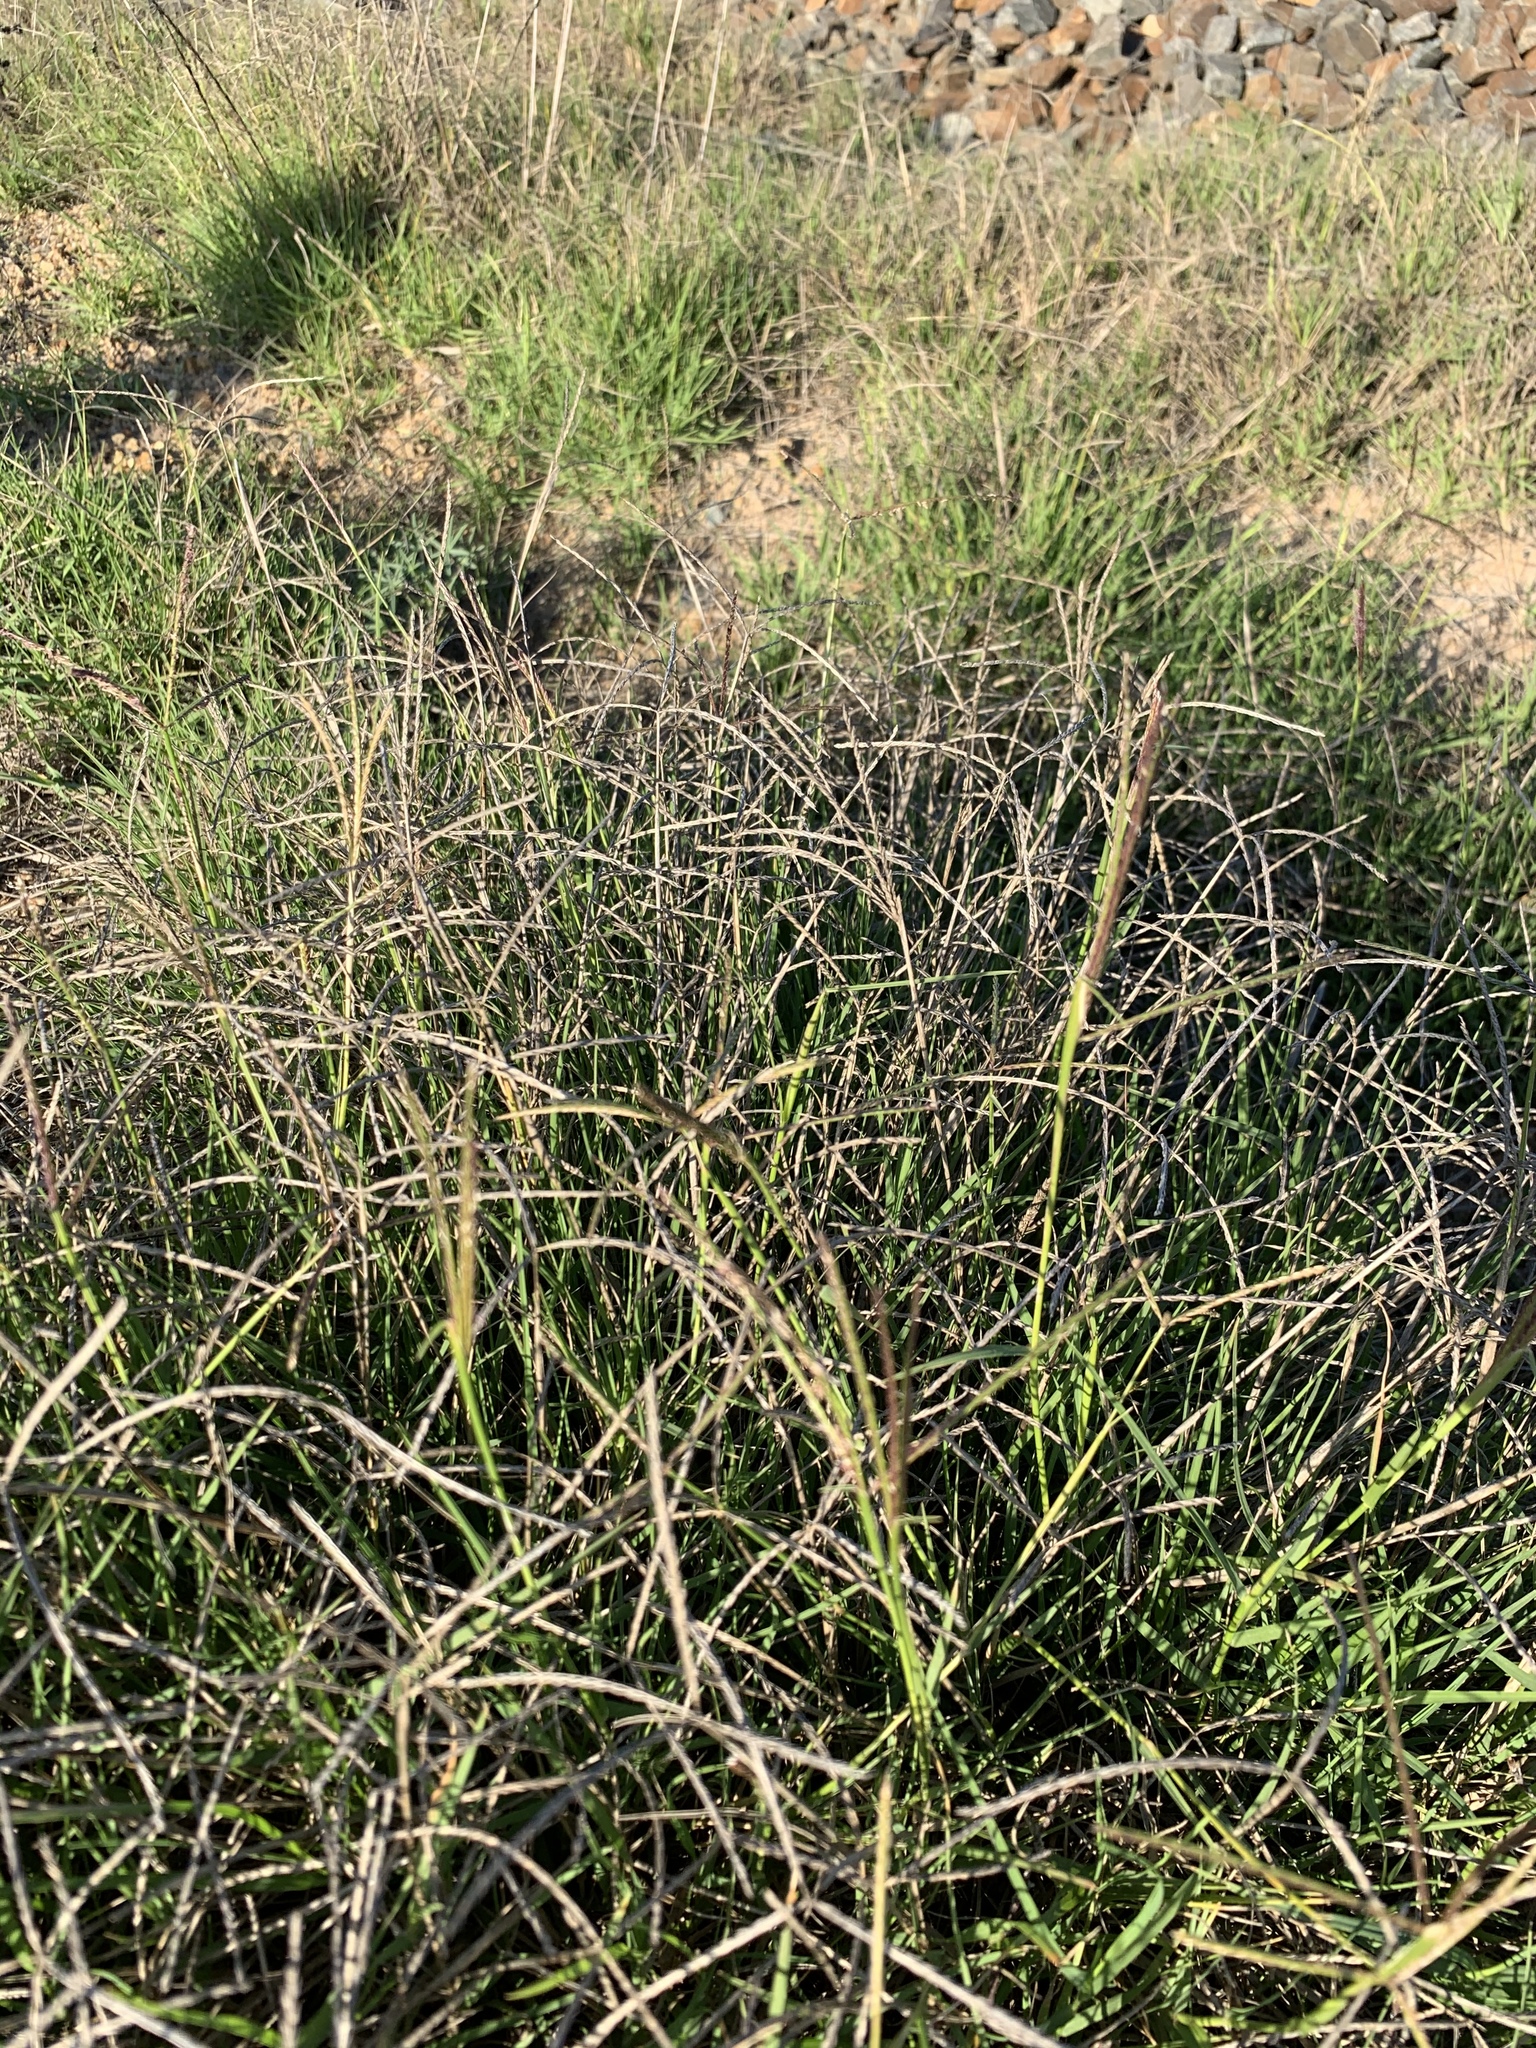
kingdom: Plantae
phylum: Tracheophyta
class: Liliopsida
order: Poales
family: Poaceae
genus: Cynodon
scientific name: Cynodon dactylon
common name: Bermuda grass
